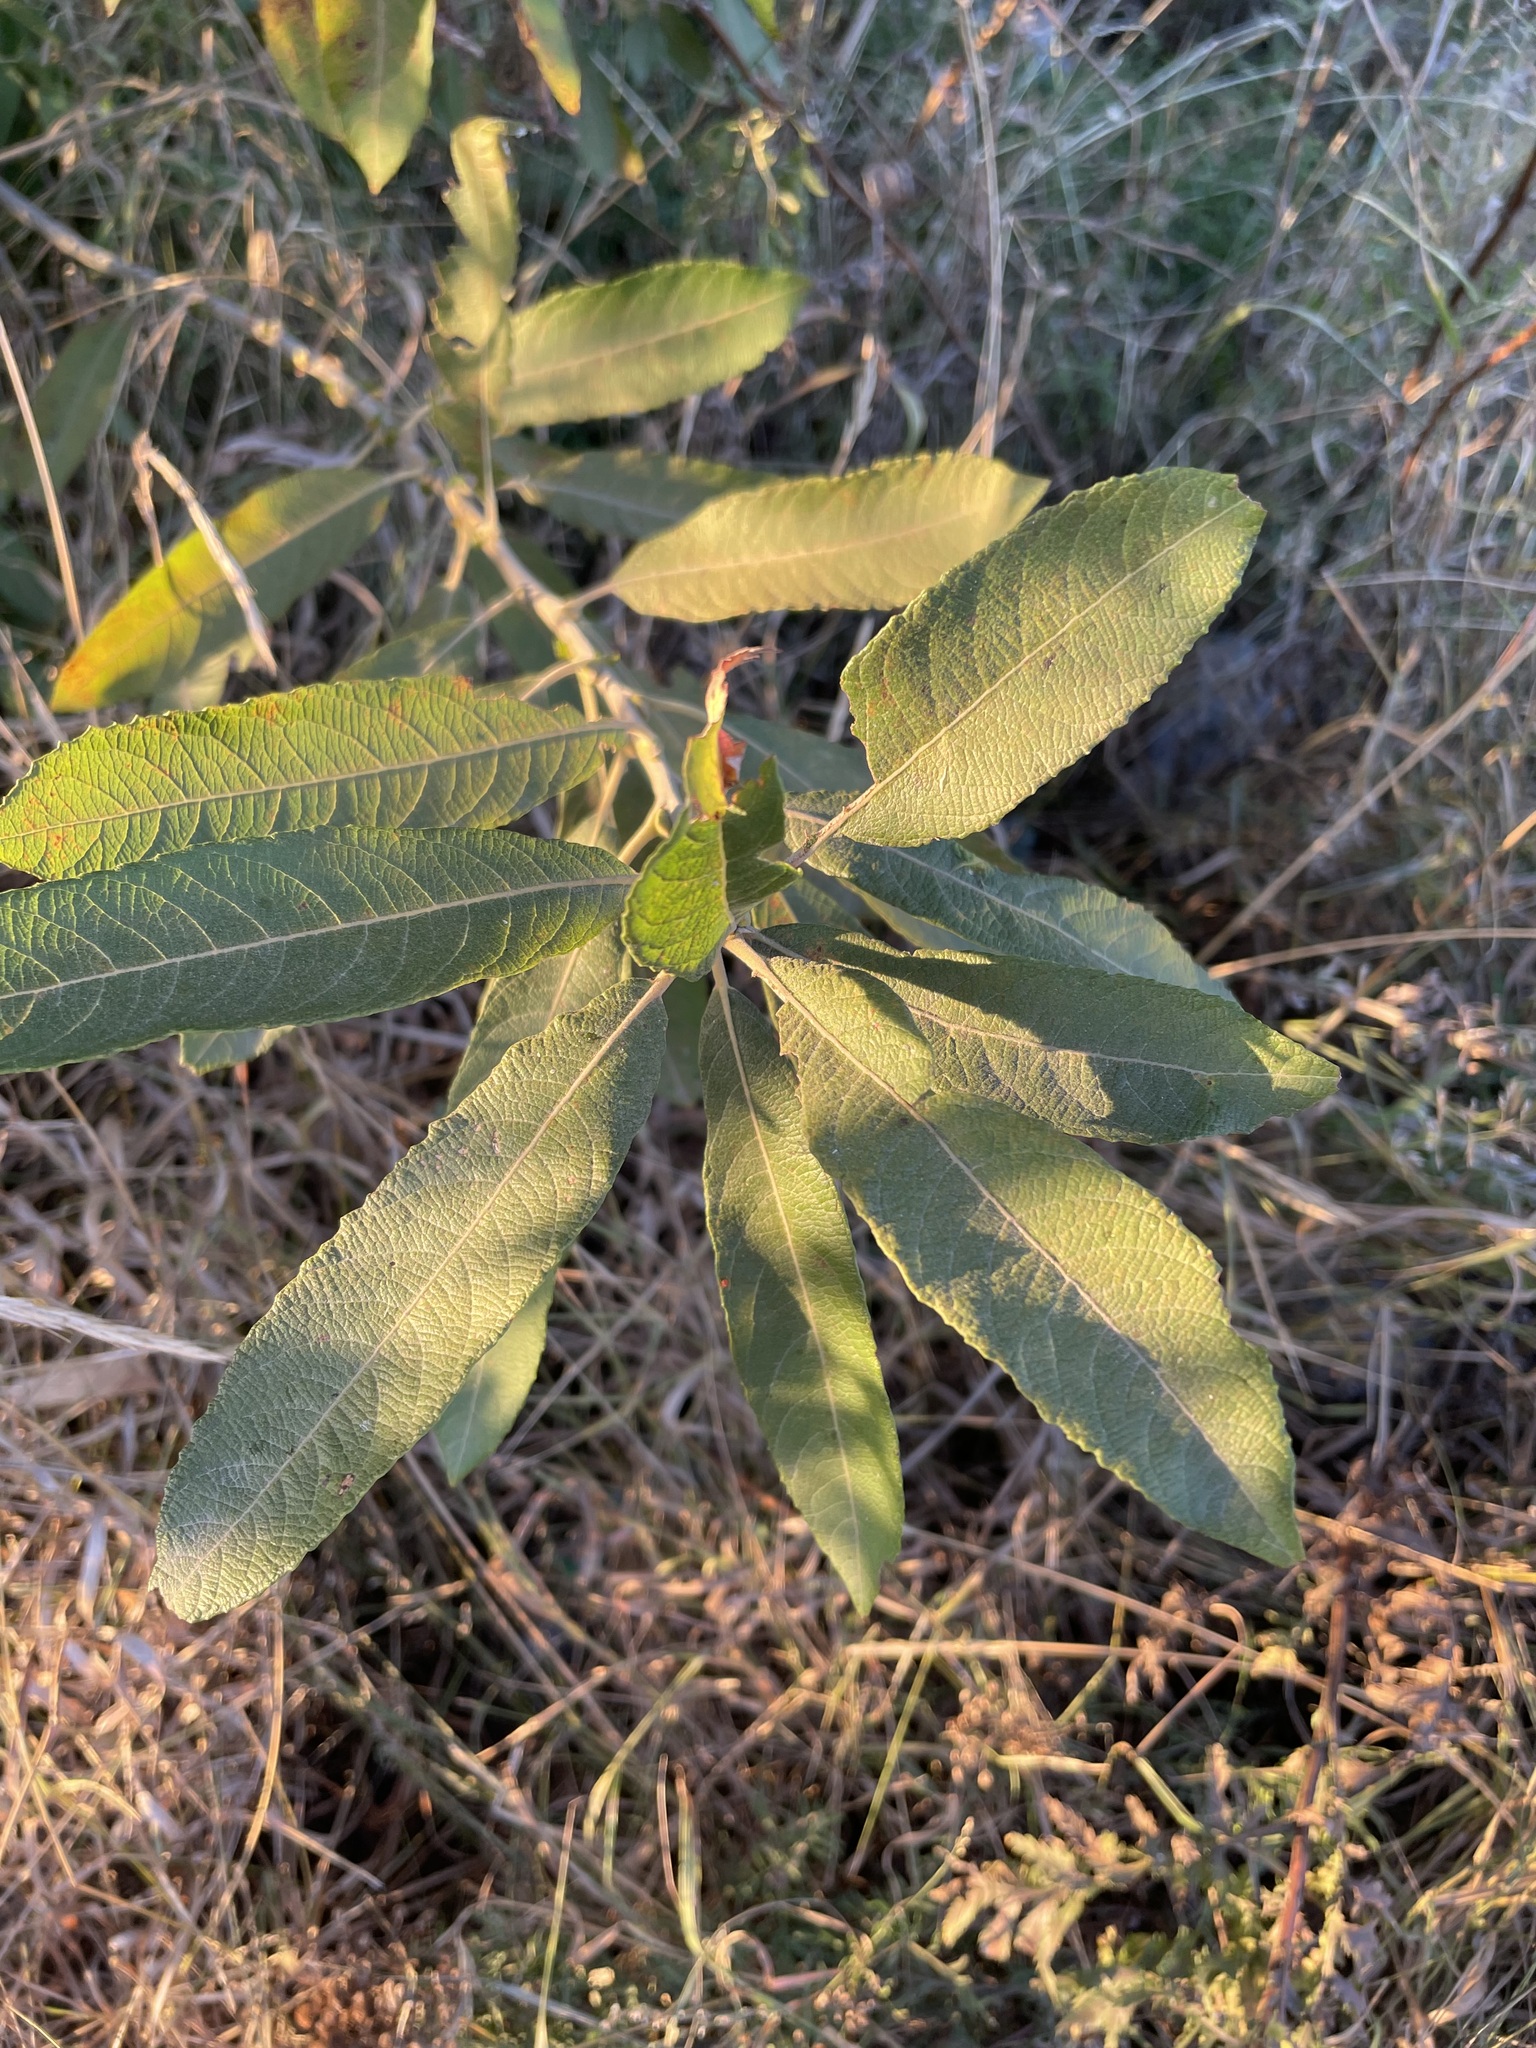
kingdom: Plantae
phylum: Tracheophyta
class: Magnoliopsida
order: Malpighiales
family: Salicaceae
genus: Salix
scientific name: Salix cinerea
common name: Common sallow
